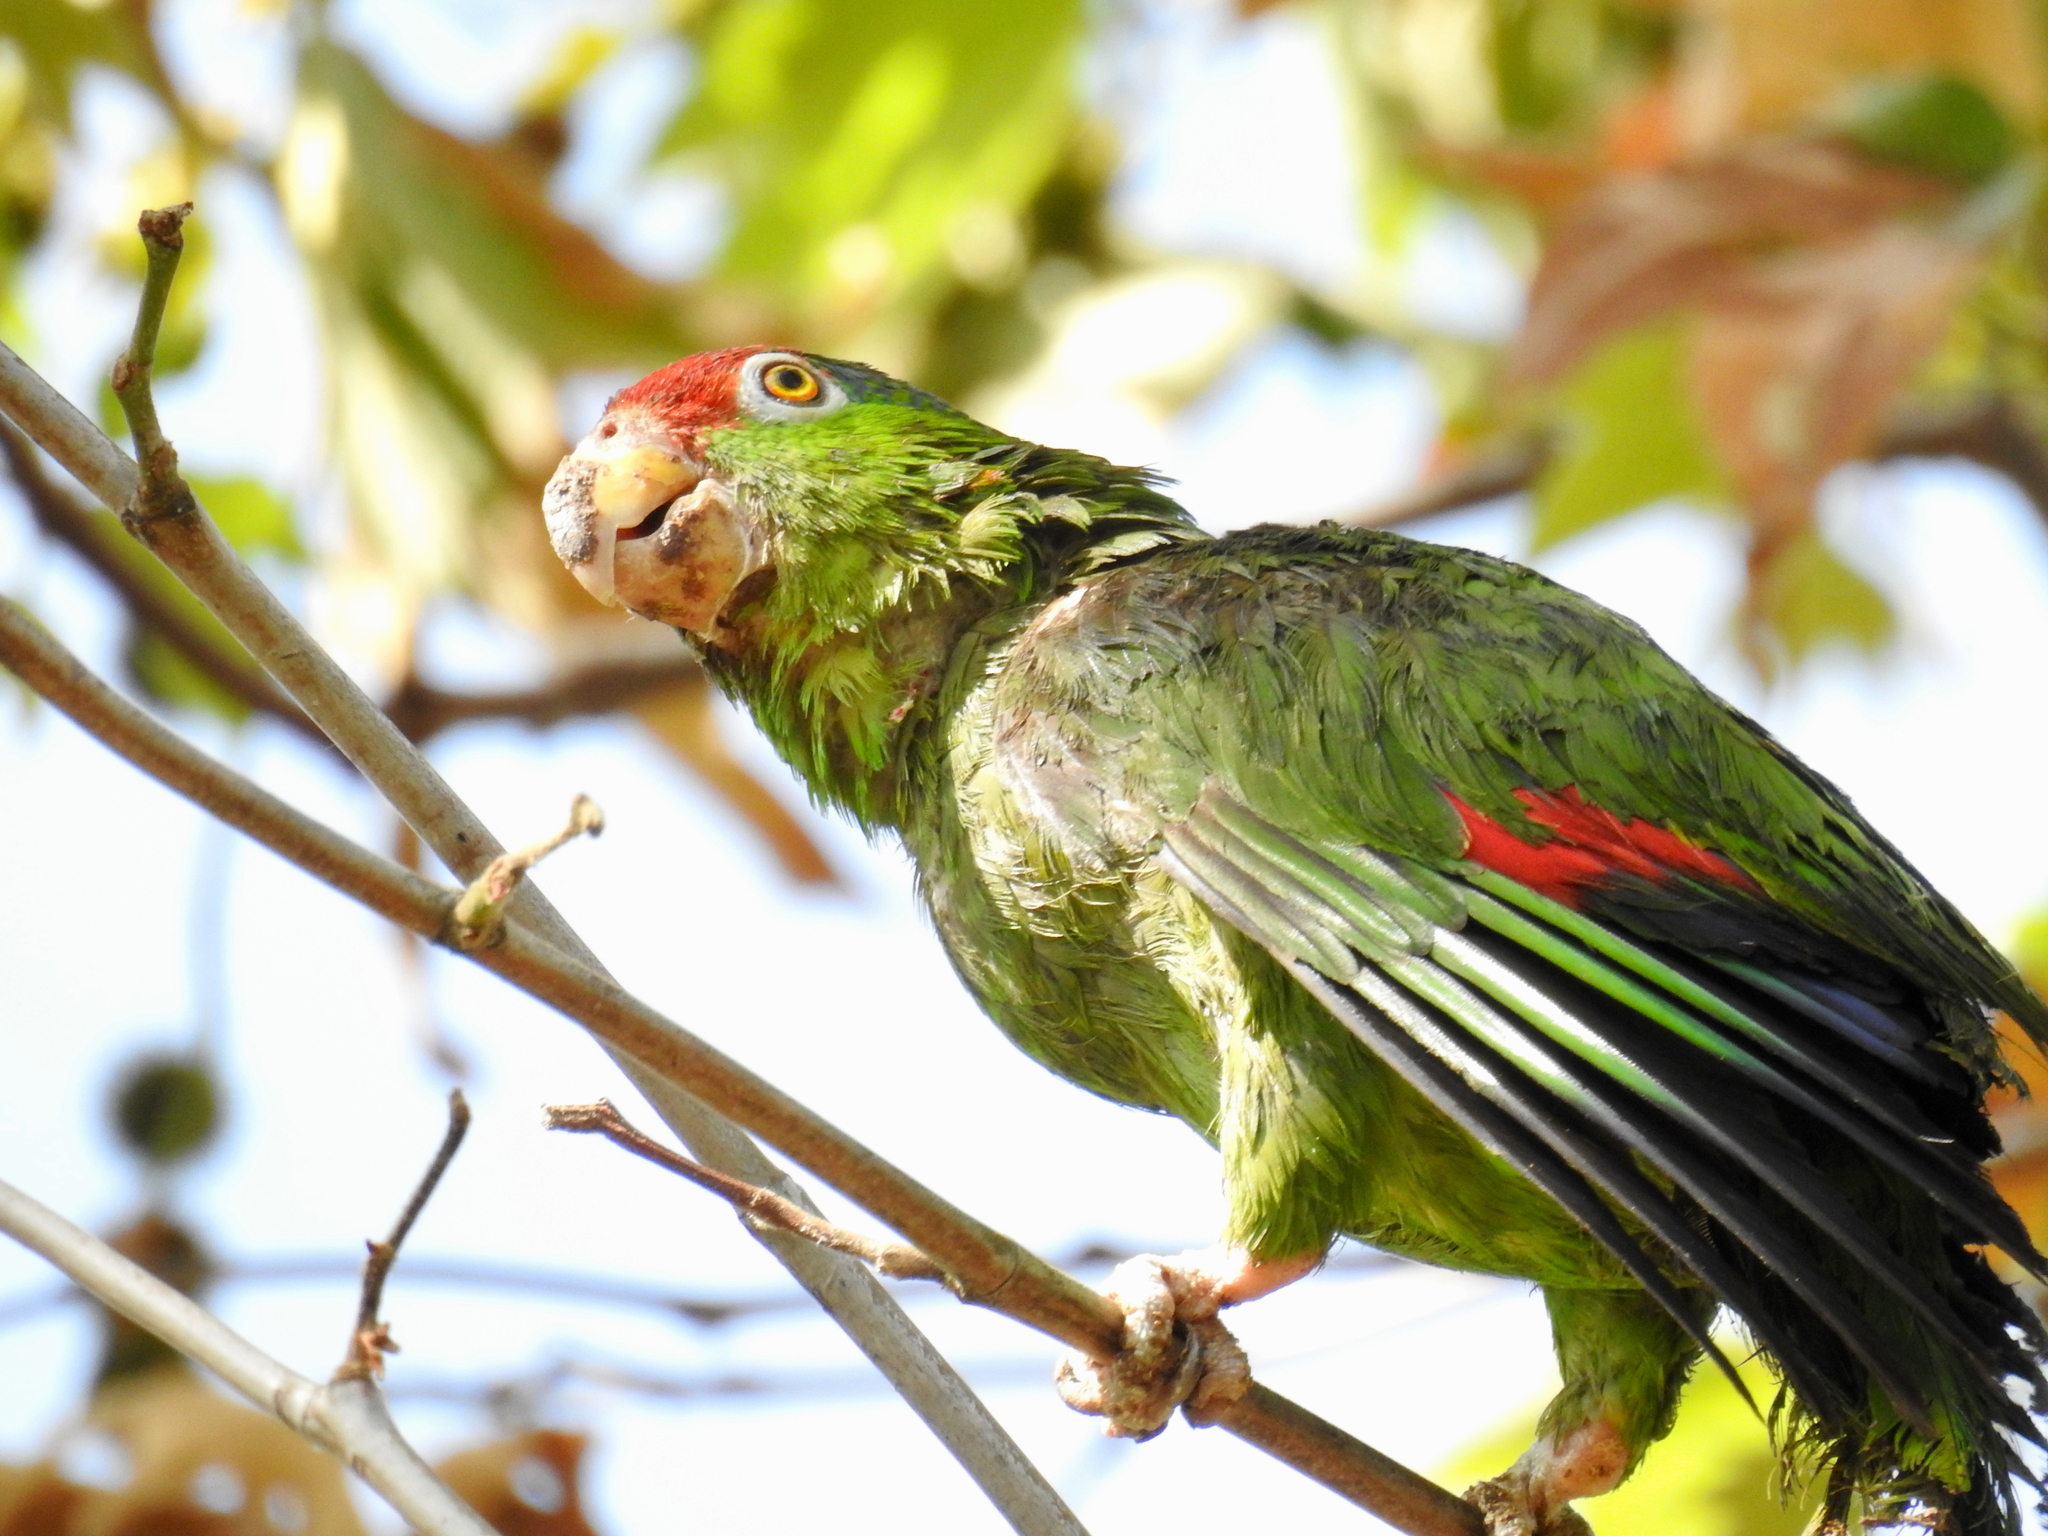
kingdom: Animalia
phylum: Chordata
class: Aves
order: Psittaciformes
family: Psittacidae
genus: Amazona
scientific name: Amazona viridigenalis
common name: Red-crowned amazon
